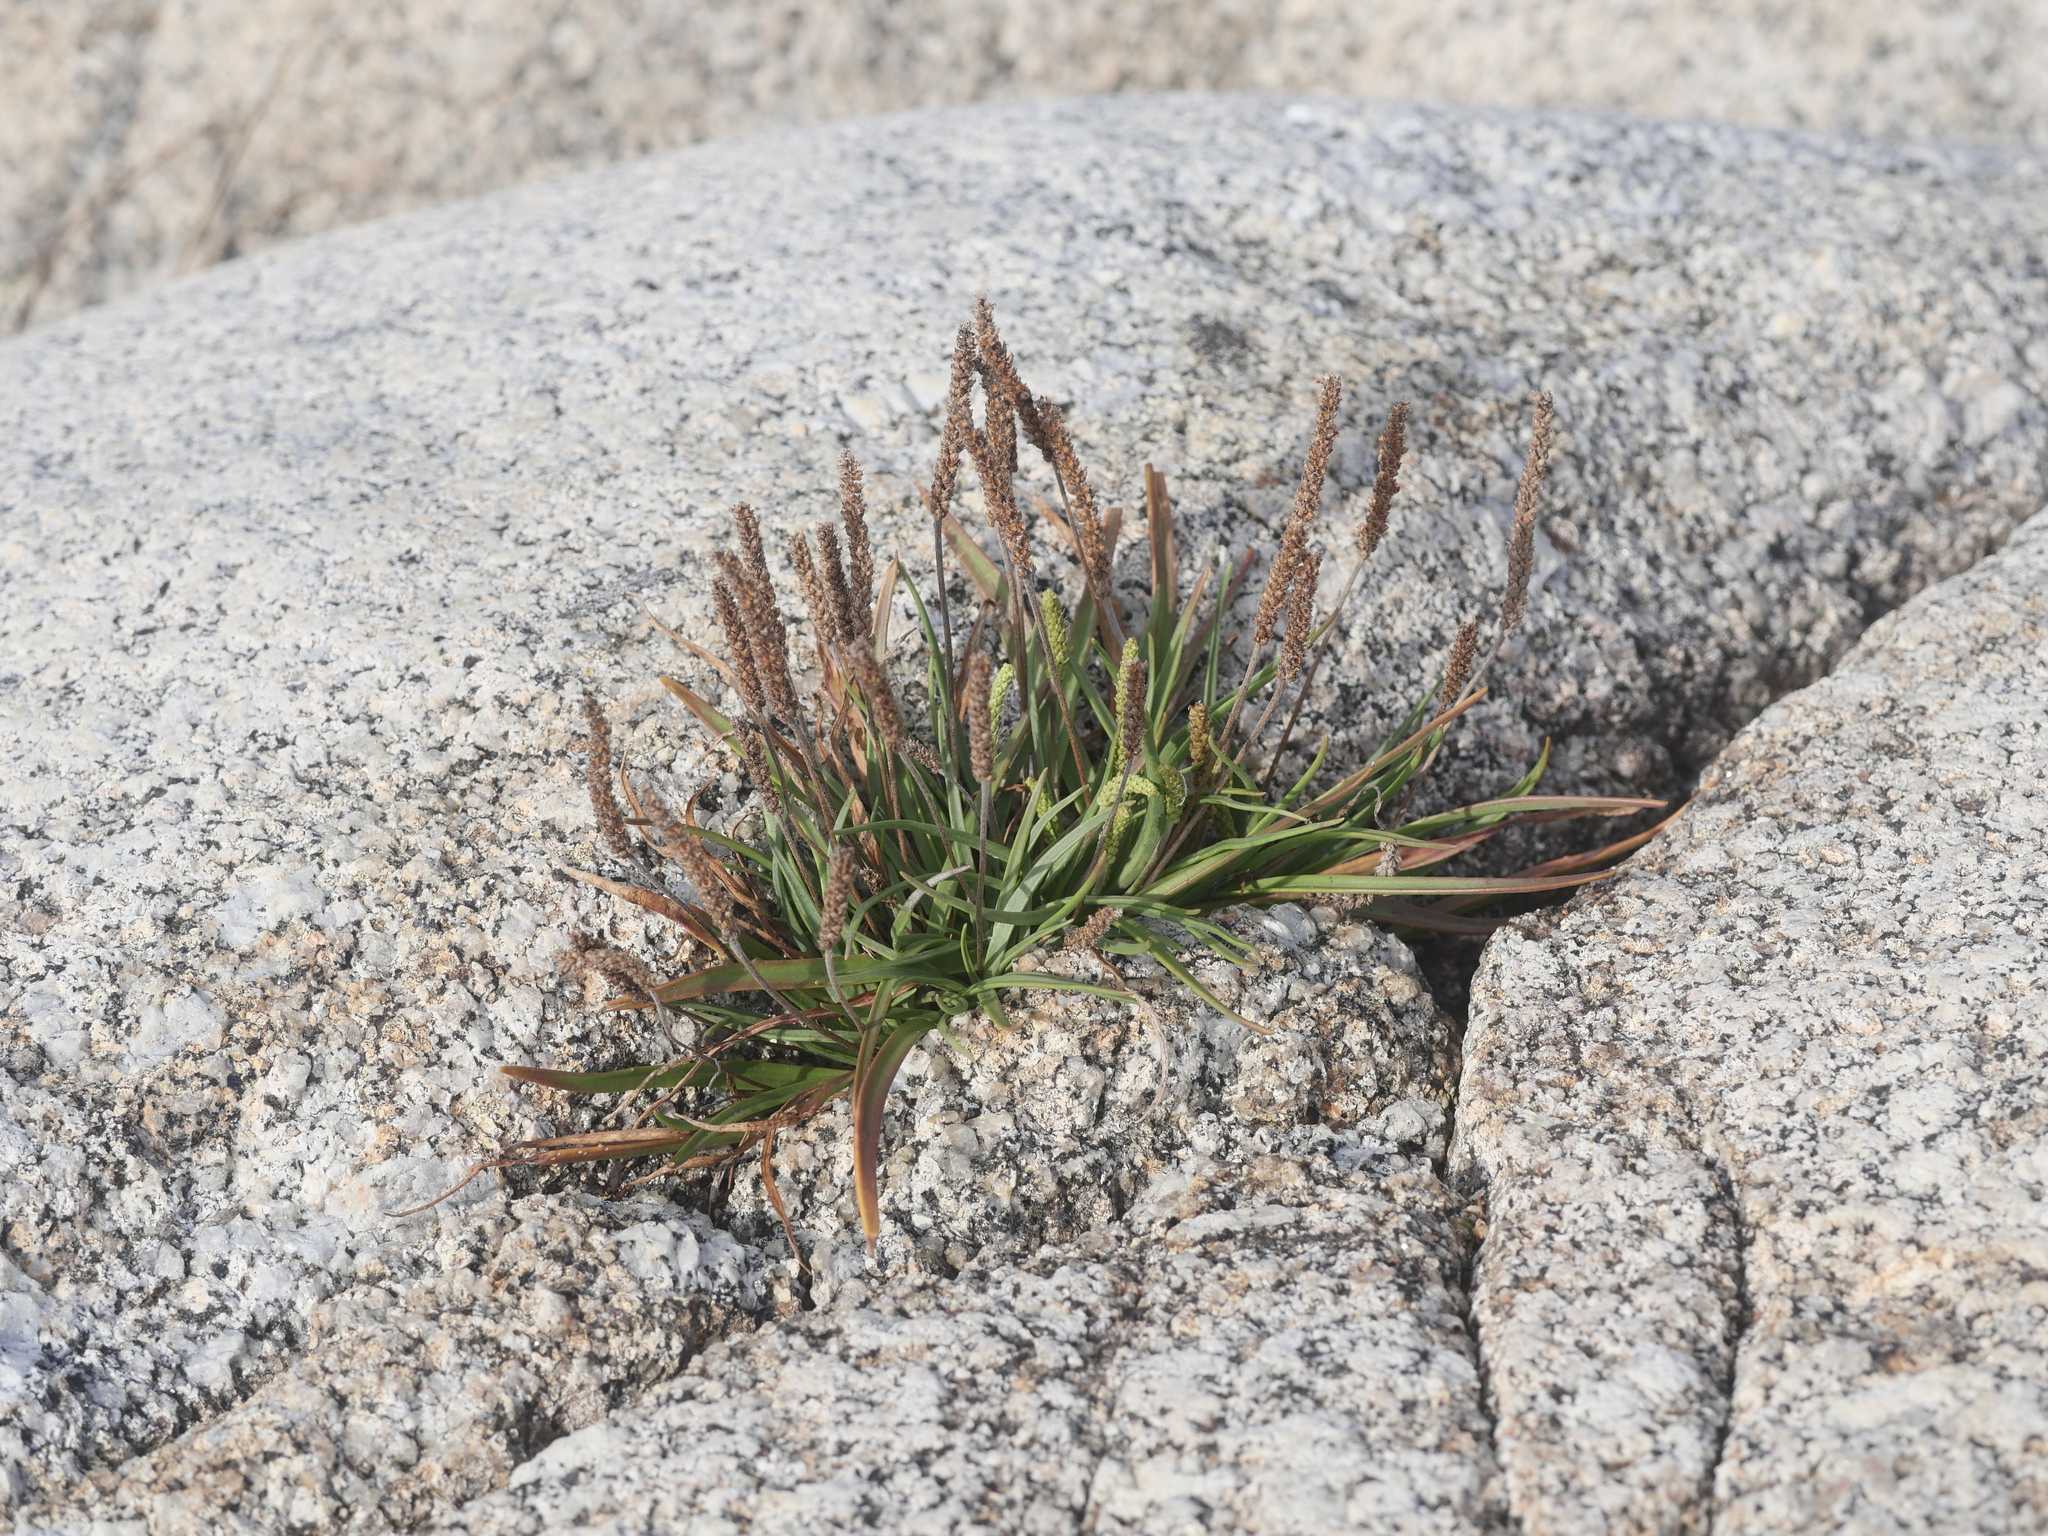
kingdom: Plantae
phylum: Tracheophyta
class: Magnoliopsida
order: Lamiales
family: Plantaginaceae
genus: Plantago
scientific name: Plantago maritima
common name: Sea plantain
